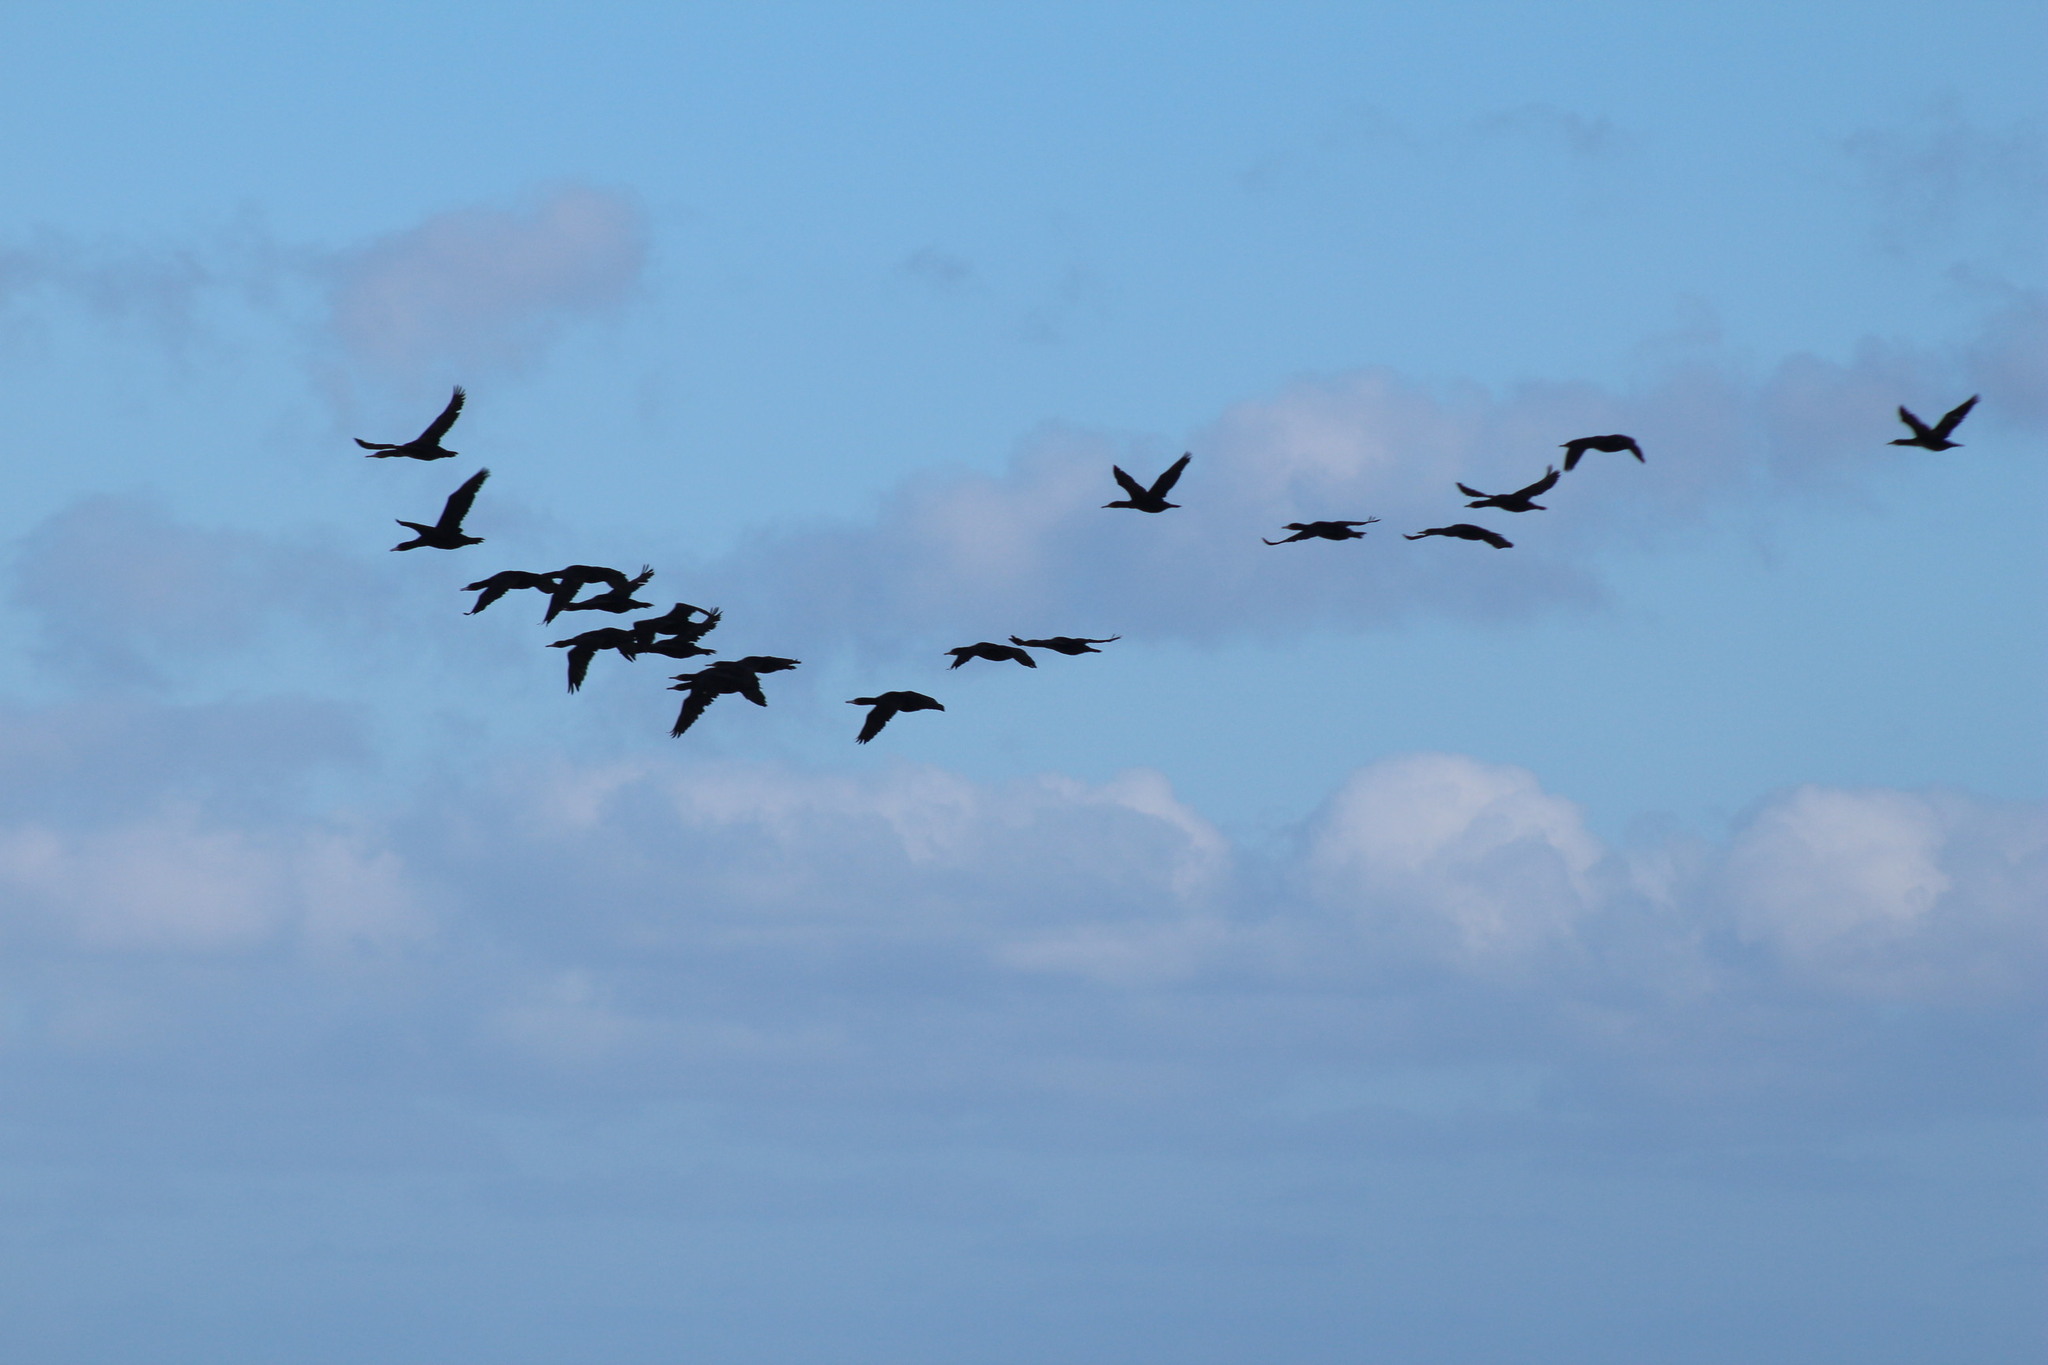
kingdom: Animalia
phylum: Chordata
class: Aves
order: Suliformes
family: Phalacrocoracidae
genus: Phalacrocorax
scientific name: Phalacrocorax capensis
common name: Cape cormorant
